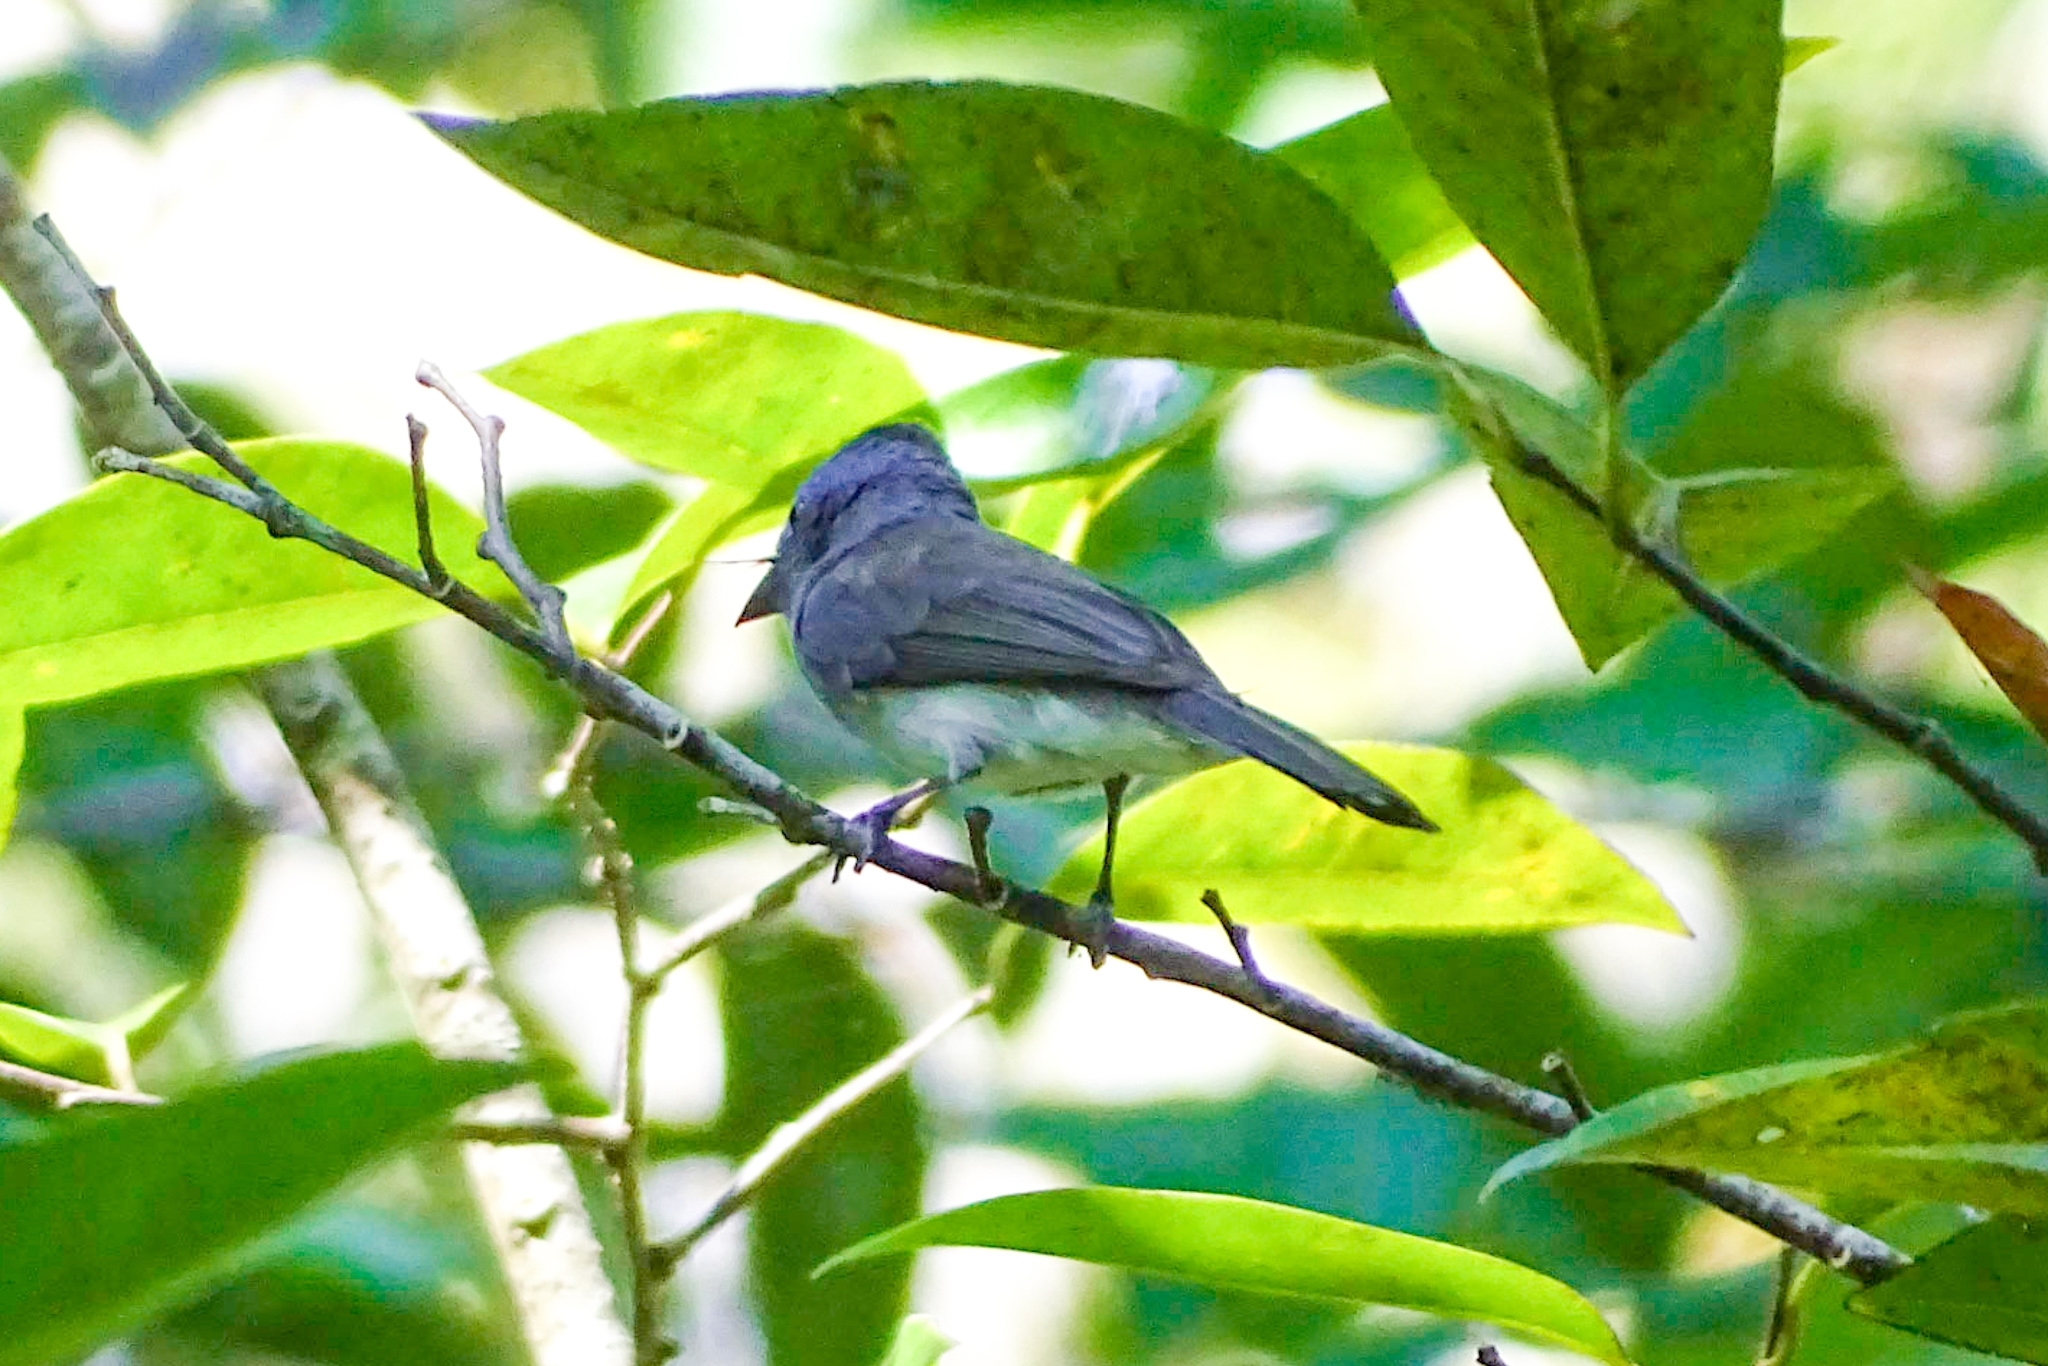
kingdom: Animalia
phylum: Chordata
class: Aves
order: Passeriformes
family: Monarchidae
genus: Hypothymis
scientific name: Hypothymis azurea
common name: Black-naped monarch
